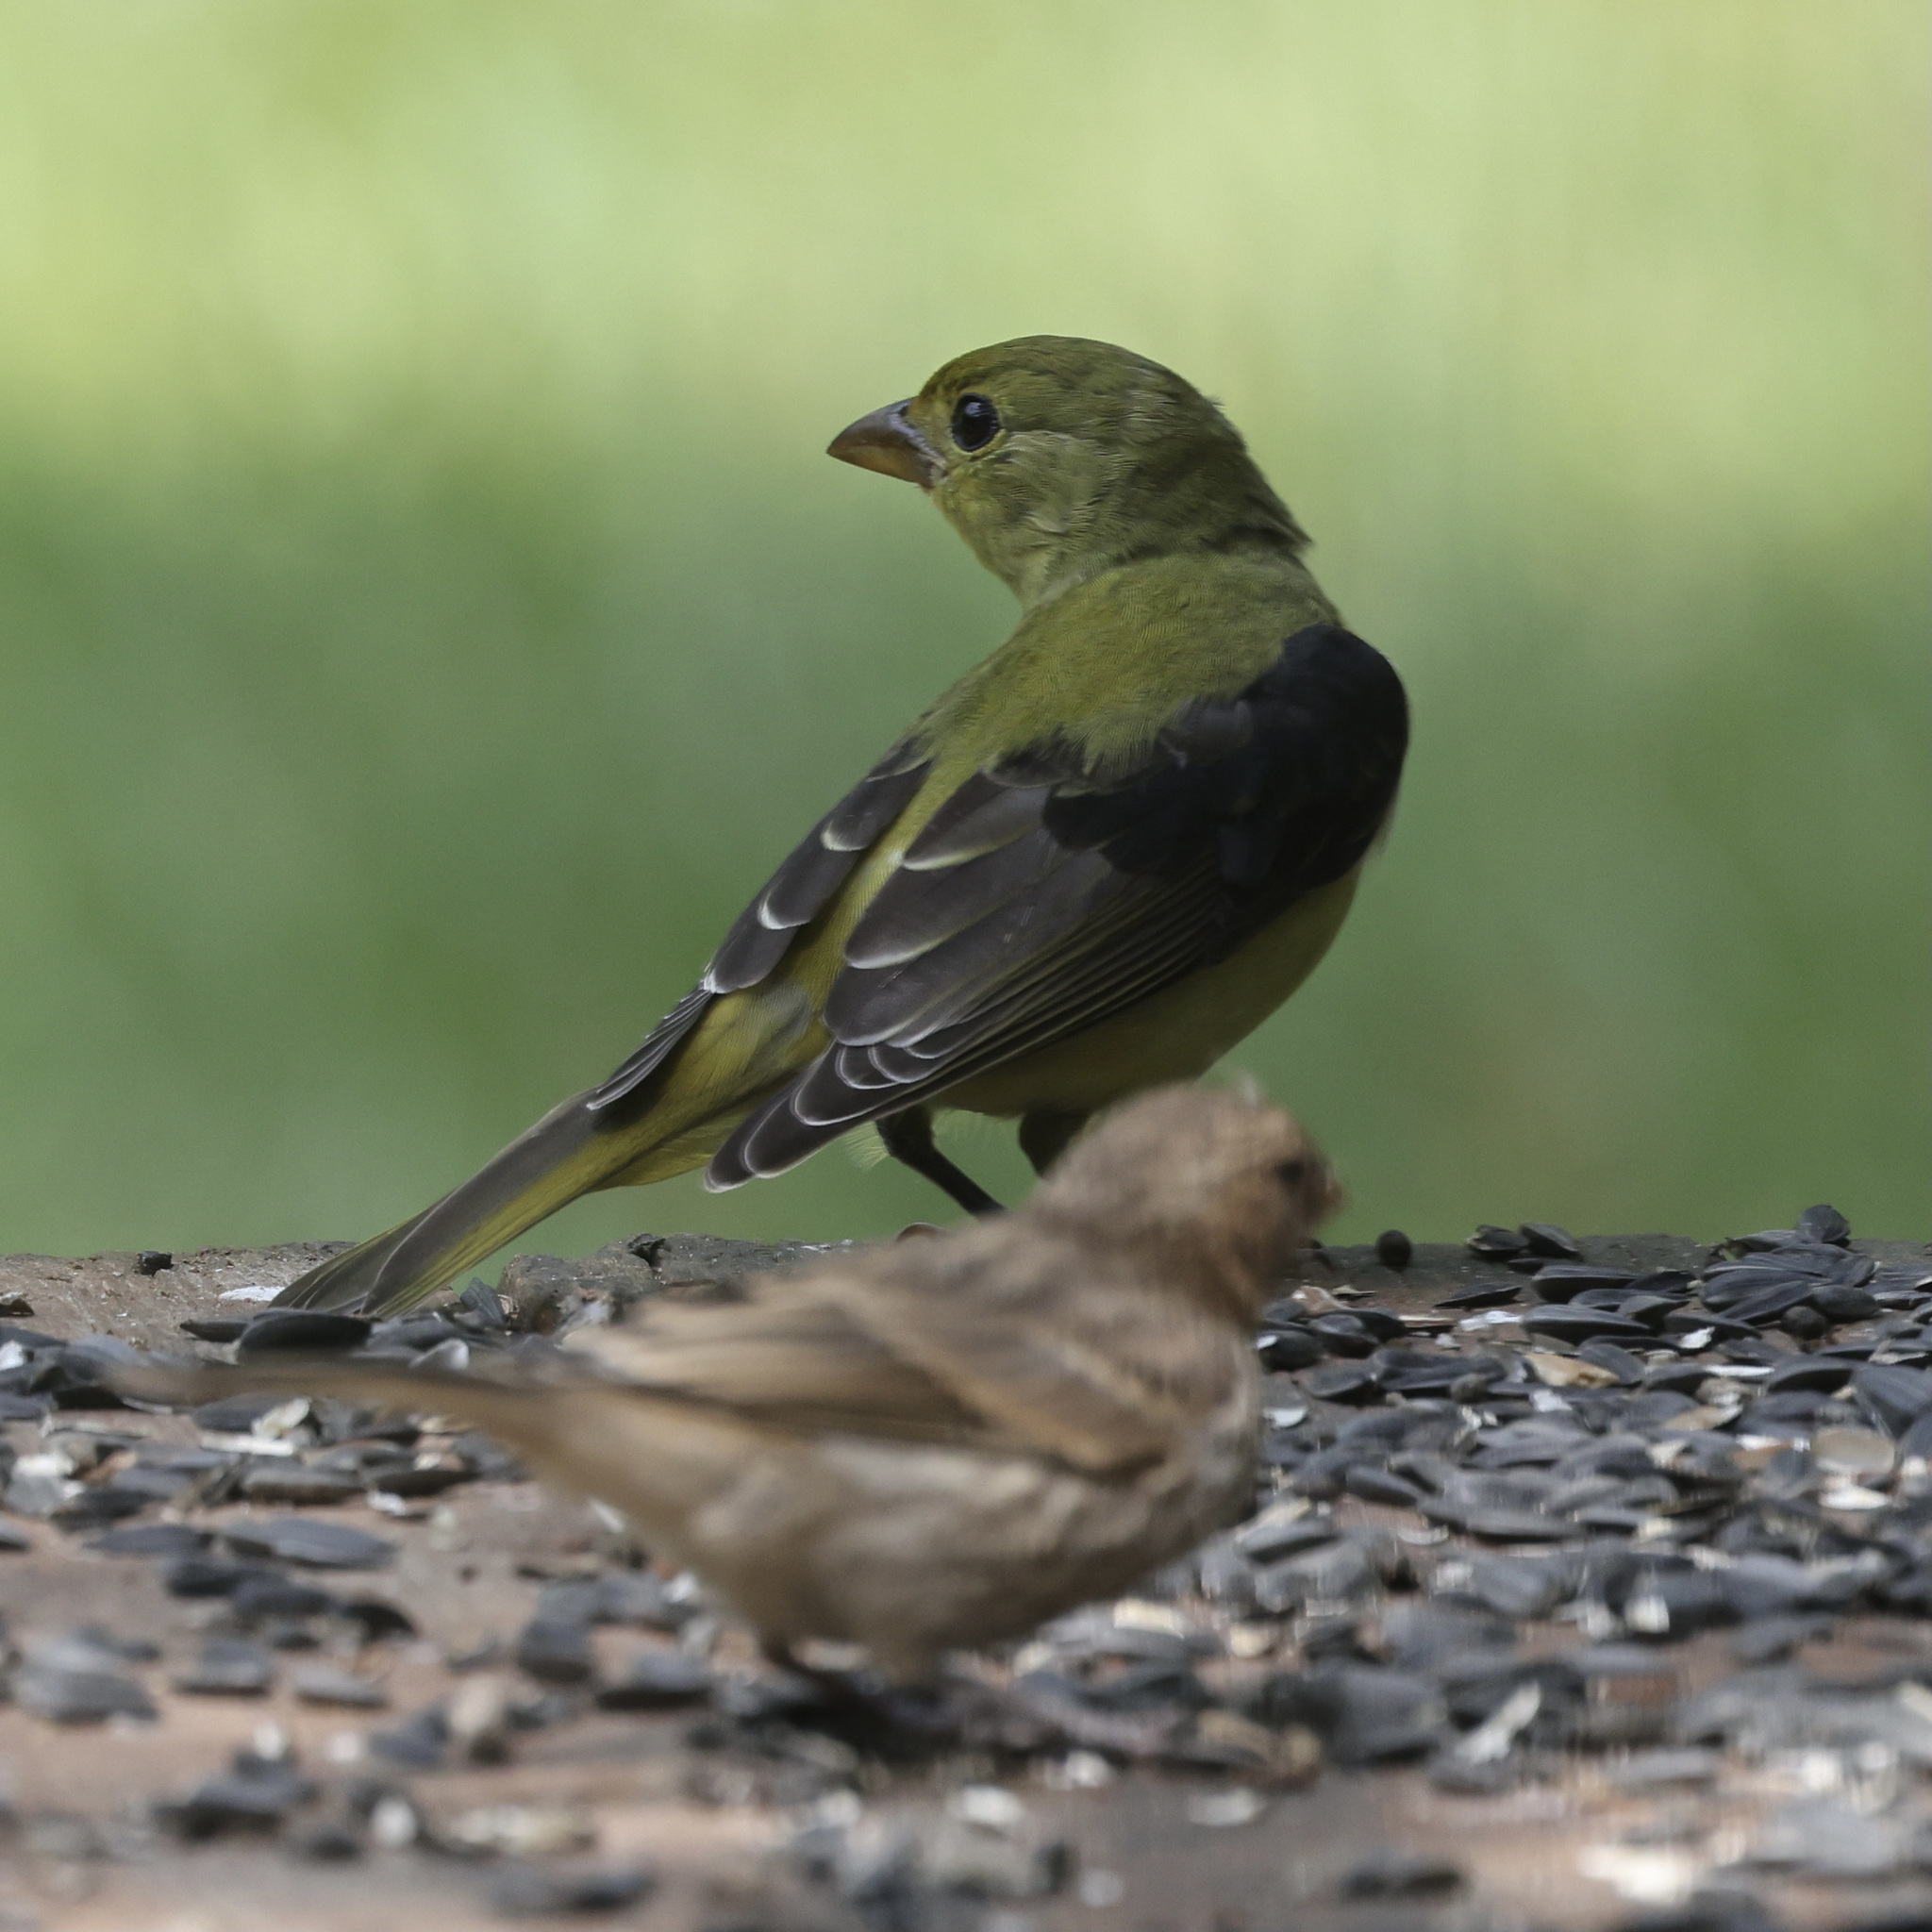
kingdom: Animalia
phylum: Chordata
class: Aves
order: Passeriformes
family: Cardinalidae
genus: Piranga
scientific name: Piranga olivacea
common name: Scarlet tanager
